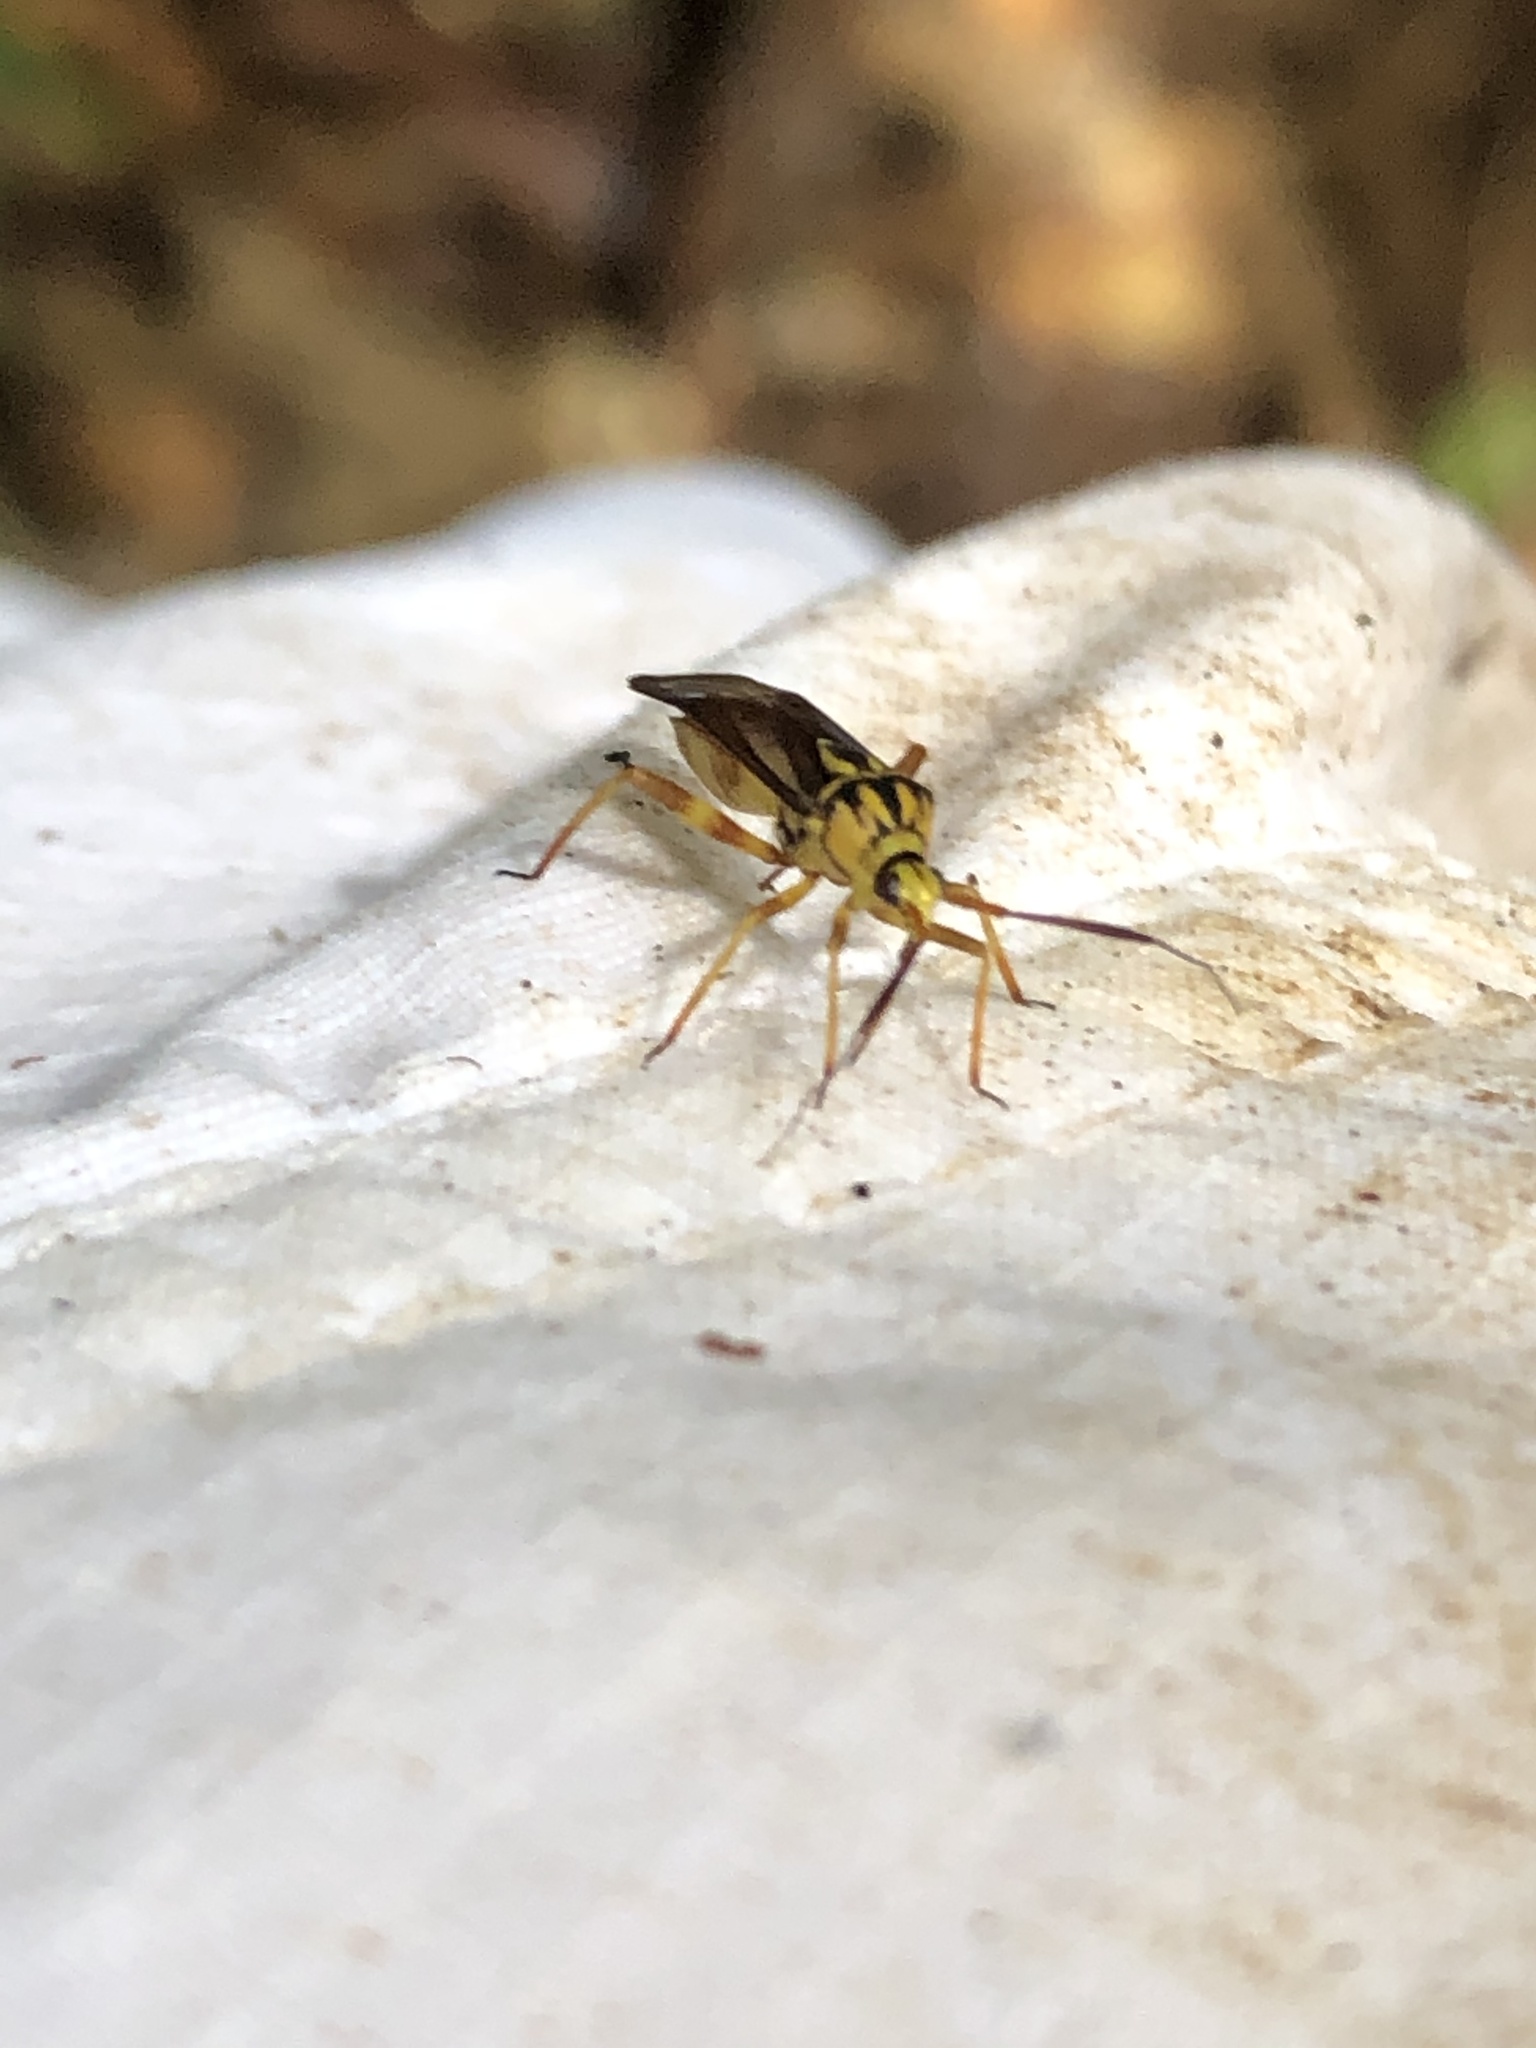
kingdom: Animalia
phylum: Arthropoda
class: Insecta
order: Hemiptera
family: Miridae
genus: Iridopeplus
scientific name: Iridopeplus pellucidipennis
